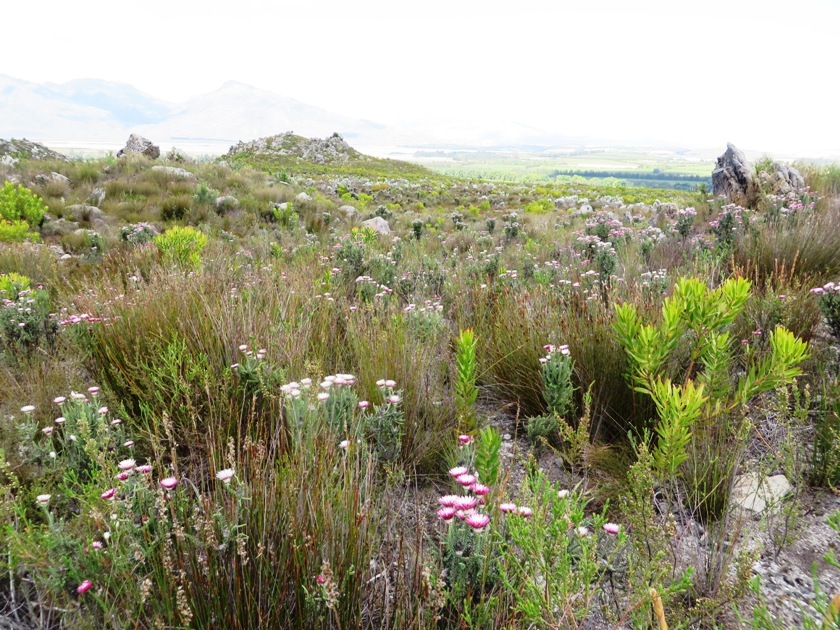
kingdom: Plantae
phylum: Tracheophyta
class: Magnoliopsida
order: Asterales
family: Asteraceae
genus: Phaenocoma
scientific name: Phaenocoma prolifera
